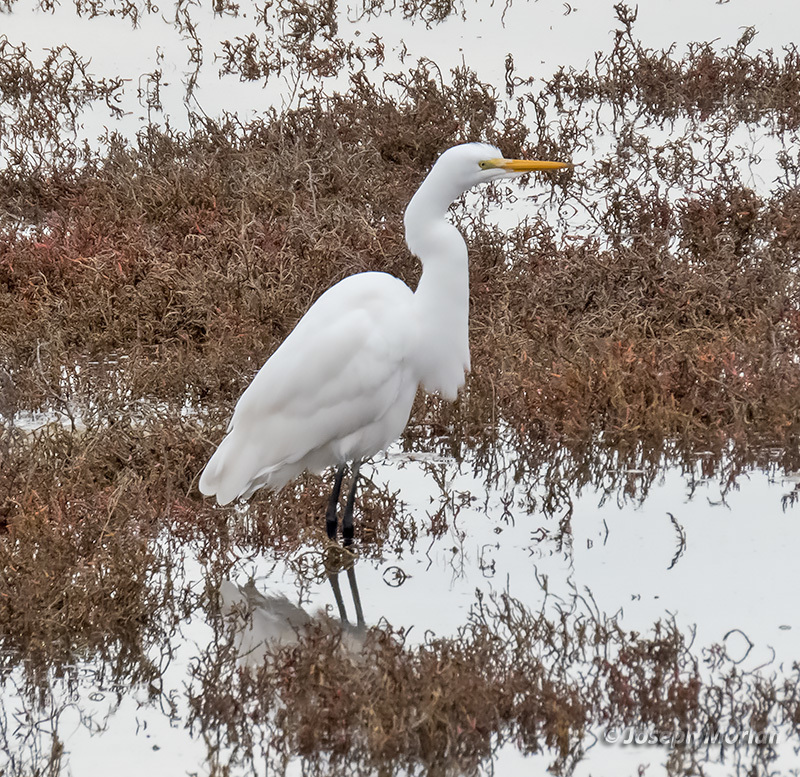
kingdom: Animalia
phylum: Chordata
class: Aves
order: Pelecaniformes
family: Ardeidae
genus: Ardea
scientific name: Ardea alba
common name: Great egret
